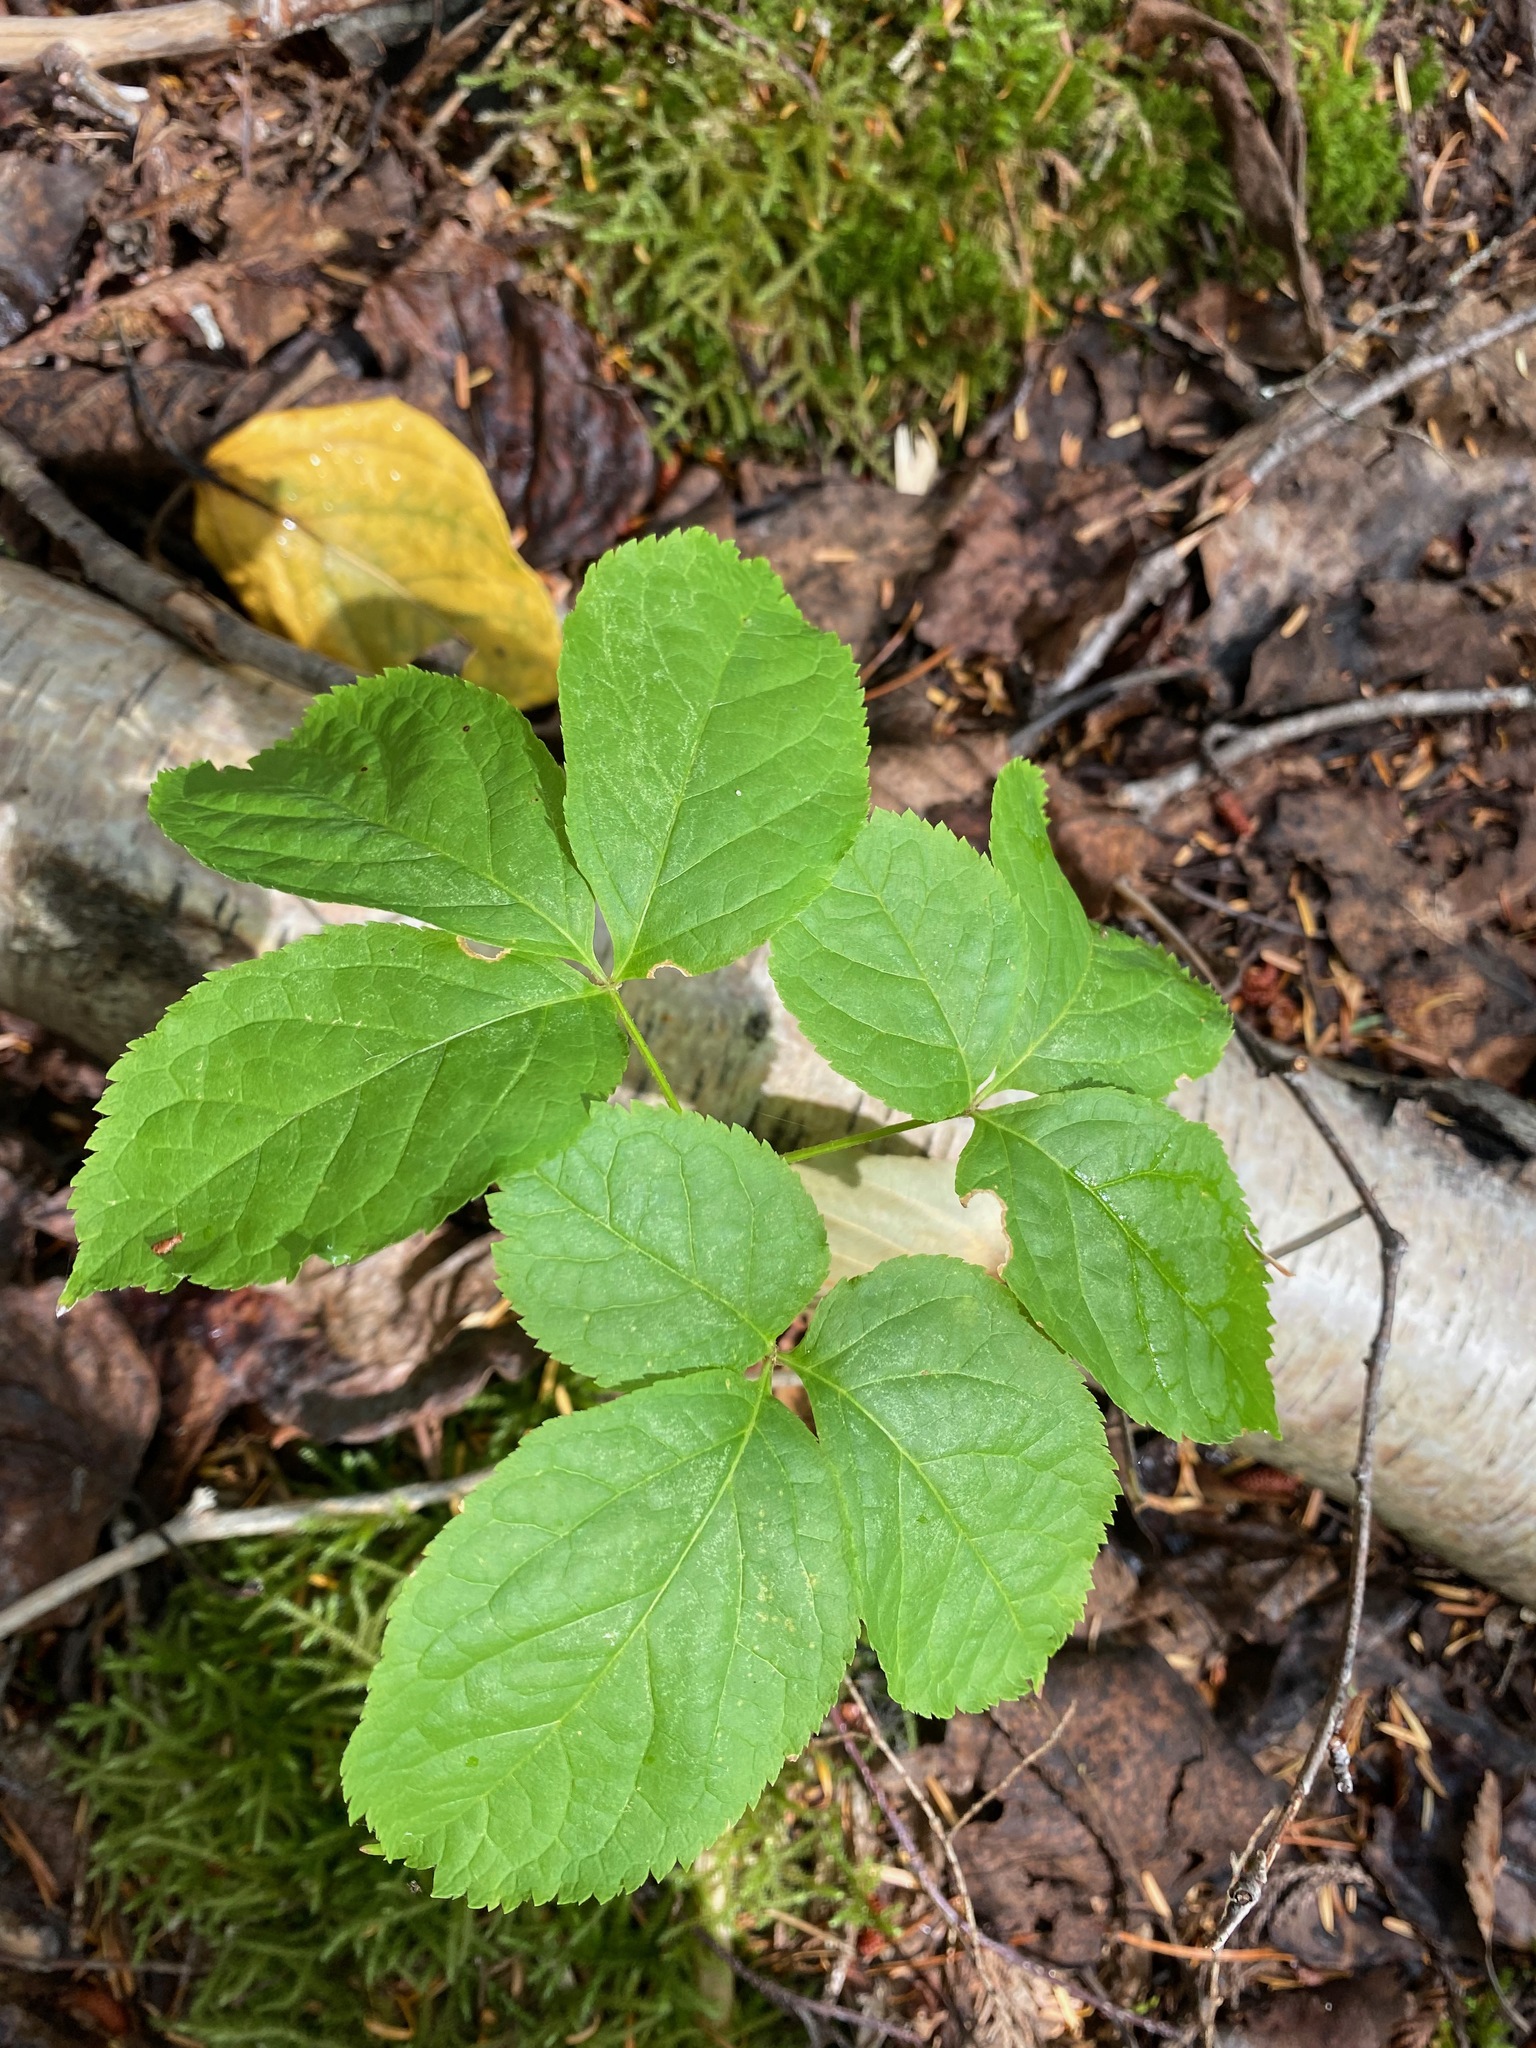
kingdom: Plantae
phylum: Tracheophyta
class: Magnoliopsida
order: Apiales
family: Araliaceae
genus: Aralia
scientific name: Aralia nudicaulis
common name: Wild sarsaparilla
